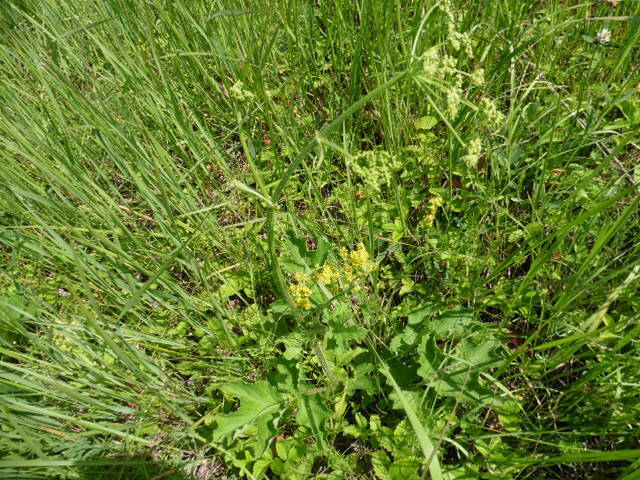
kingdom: Plantae
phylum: Tracheophyta
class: Magnoliopsida
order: Apiales
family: Apiaceae
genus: Heracleum
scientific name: Heracleum sphondylium
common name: Hogweed
